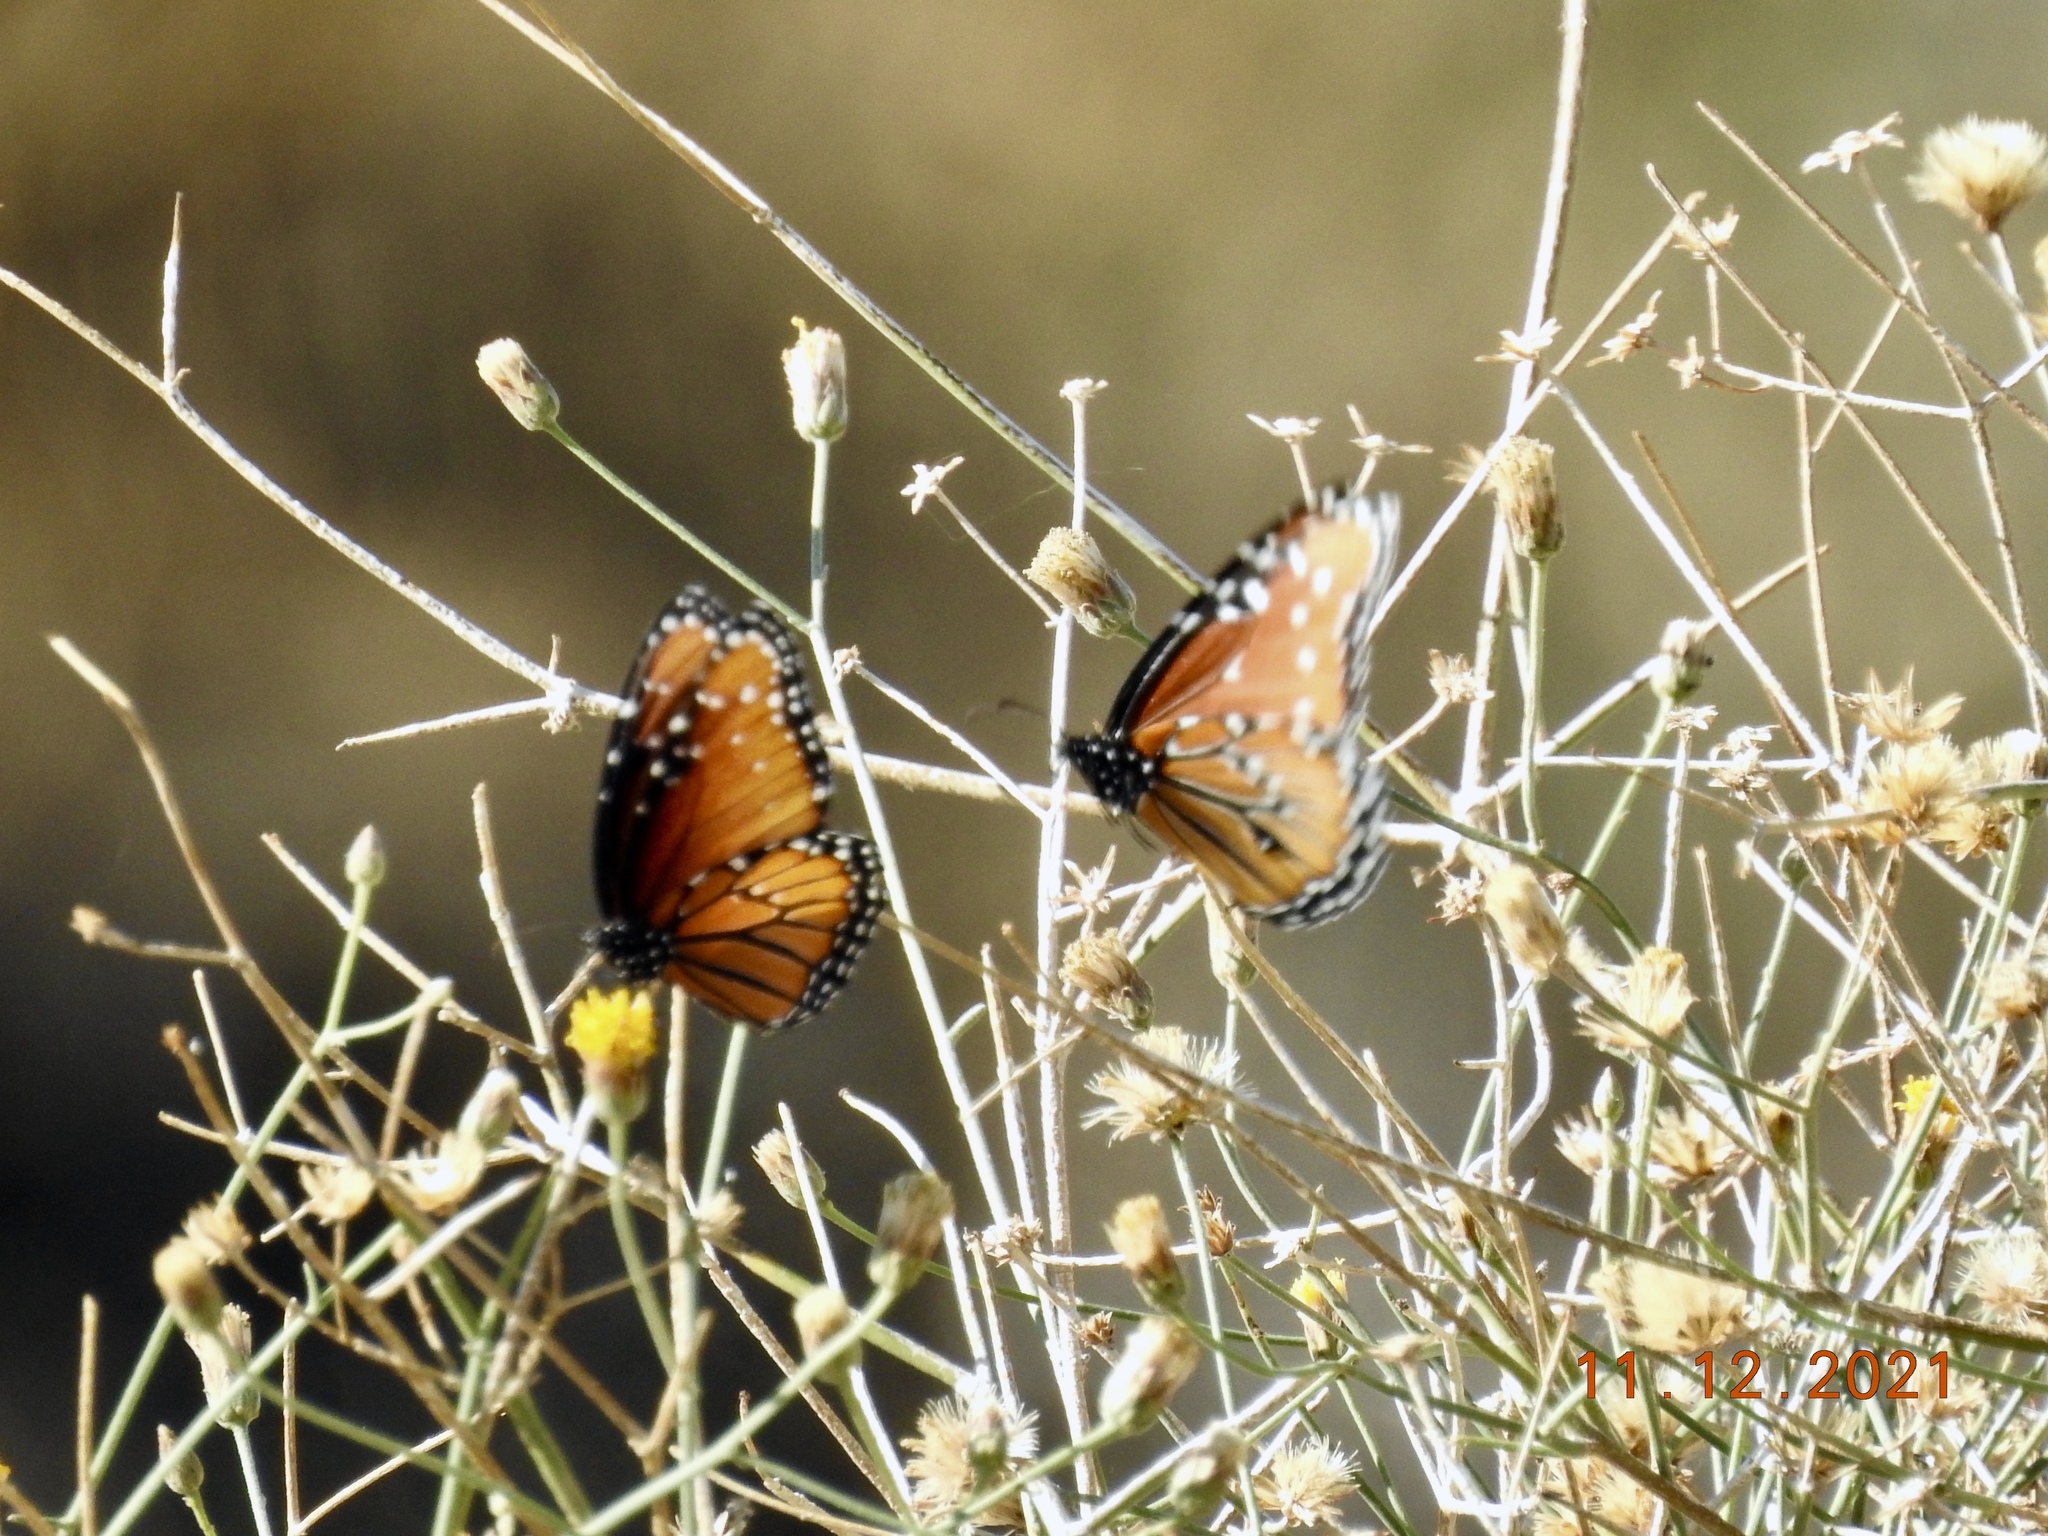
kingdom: Animalia
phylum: Arthropoda
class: Insecta
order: Lepidoptera
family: Nymphalidae
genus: Danaus
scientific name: Danaus gilippus
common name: Queen
